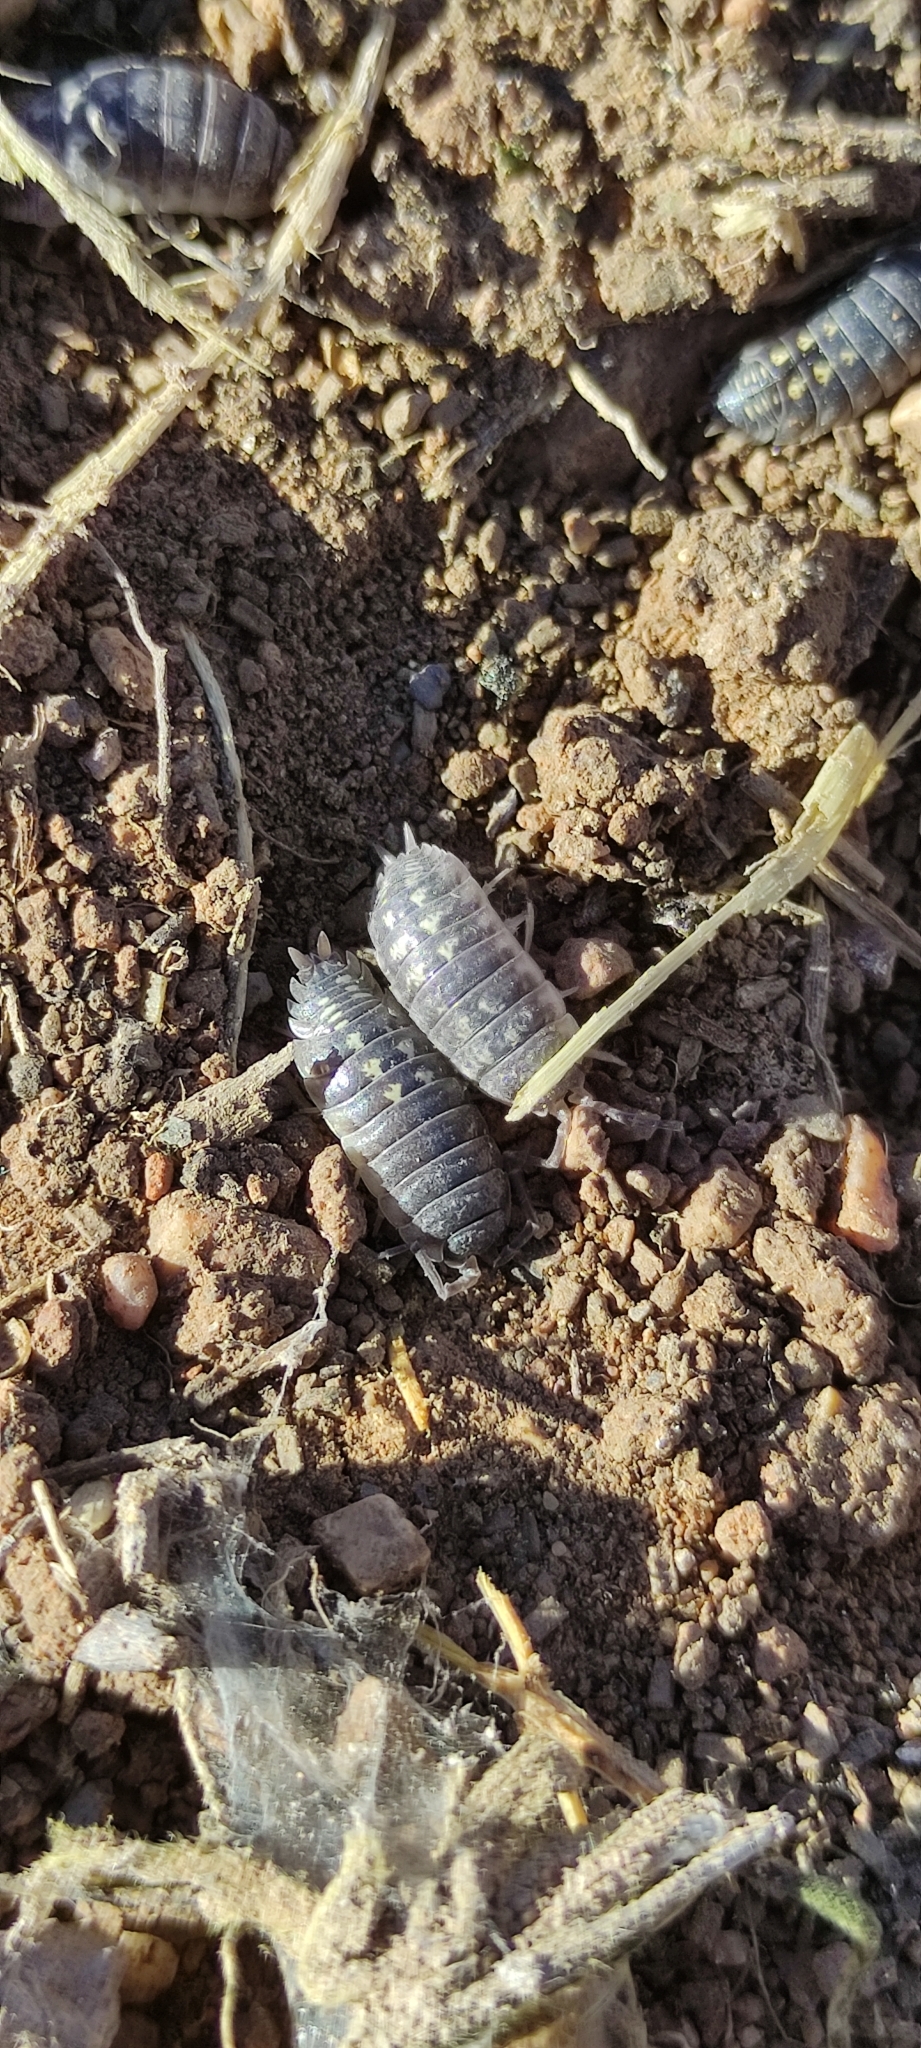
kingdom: Animalia
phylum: Arthropoda
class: Malacostraca
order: Isopoda
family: Porcellionidae
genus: Porcellio
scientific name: Porcellio ornatus
